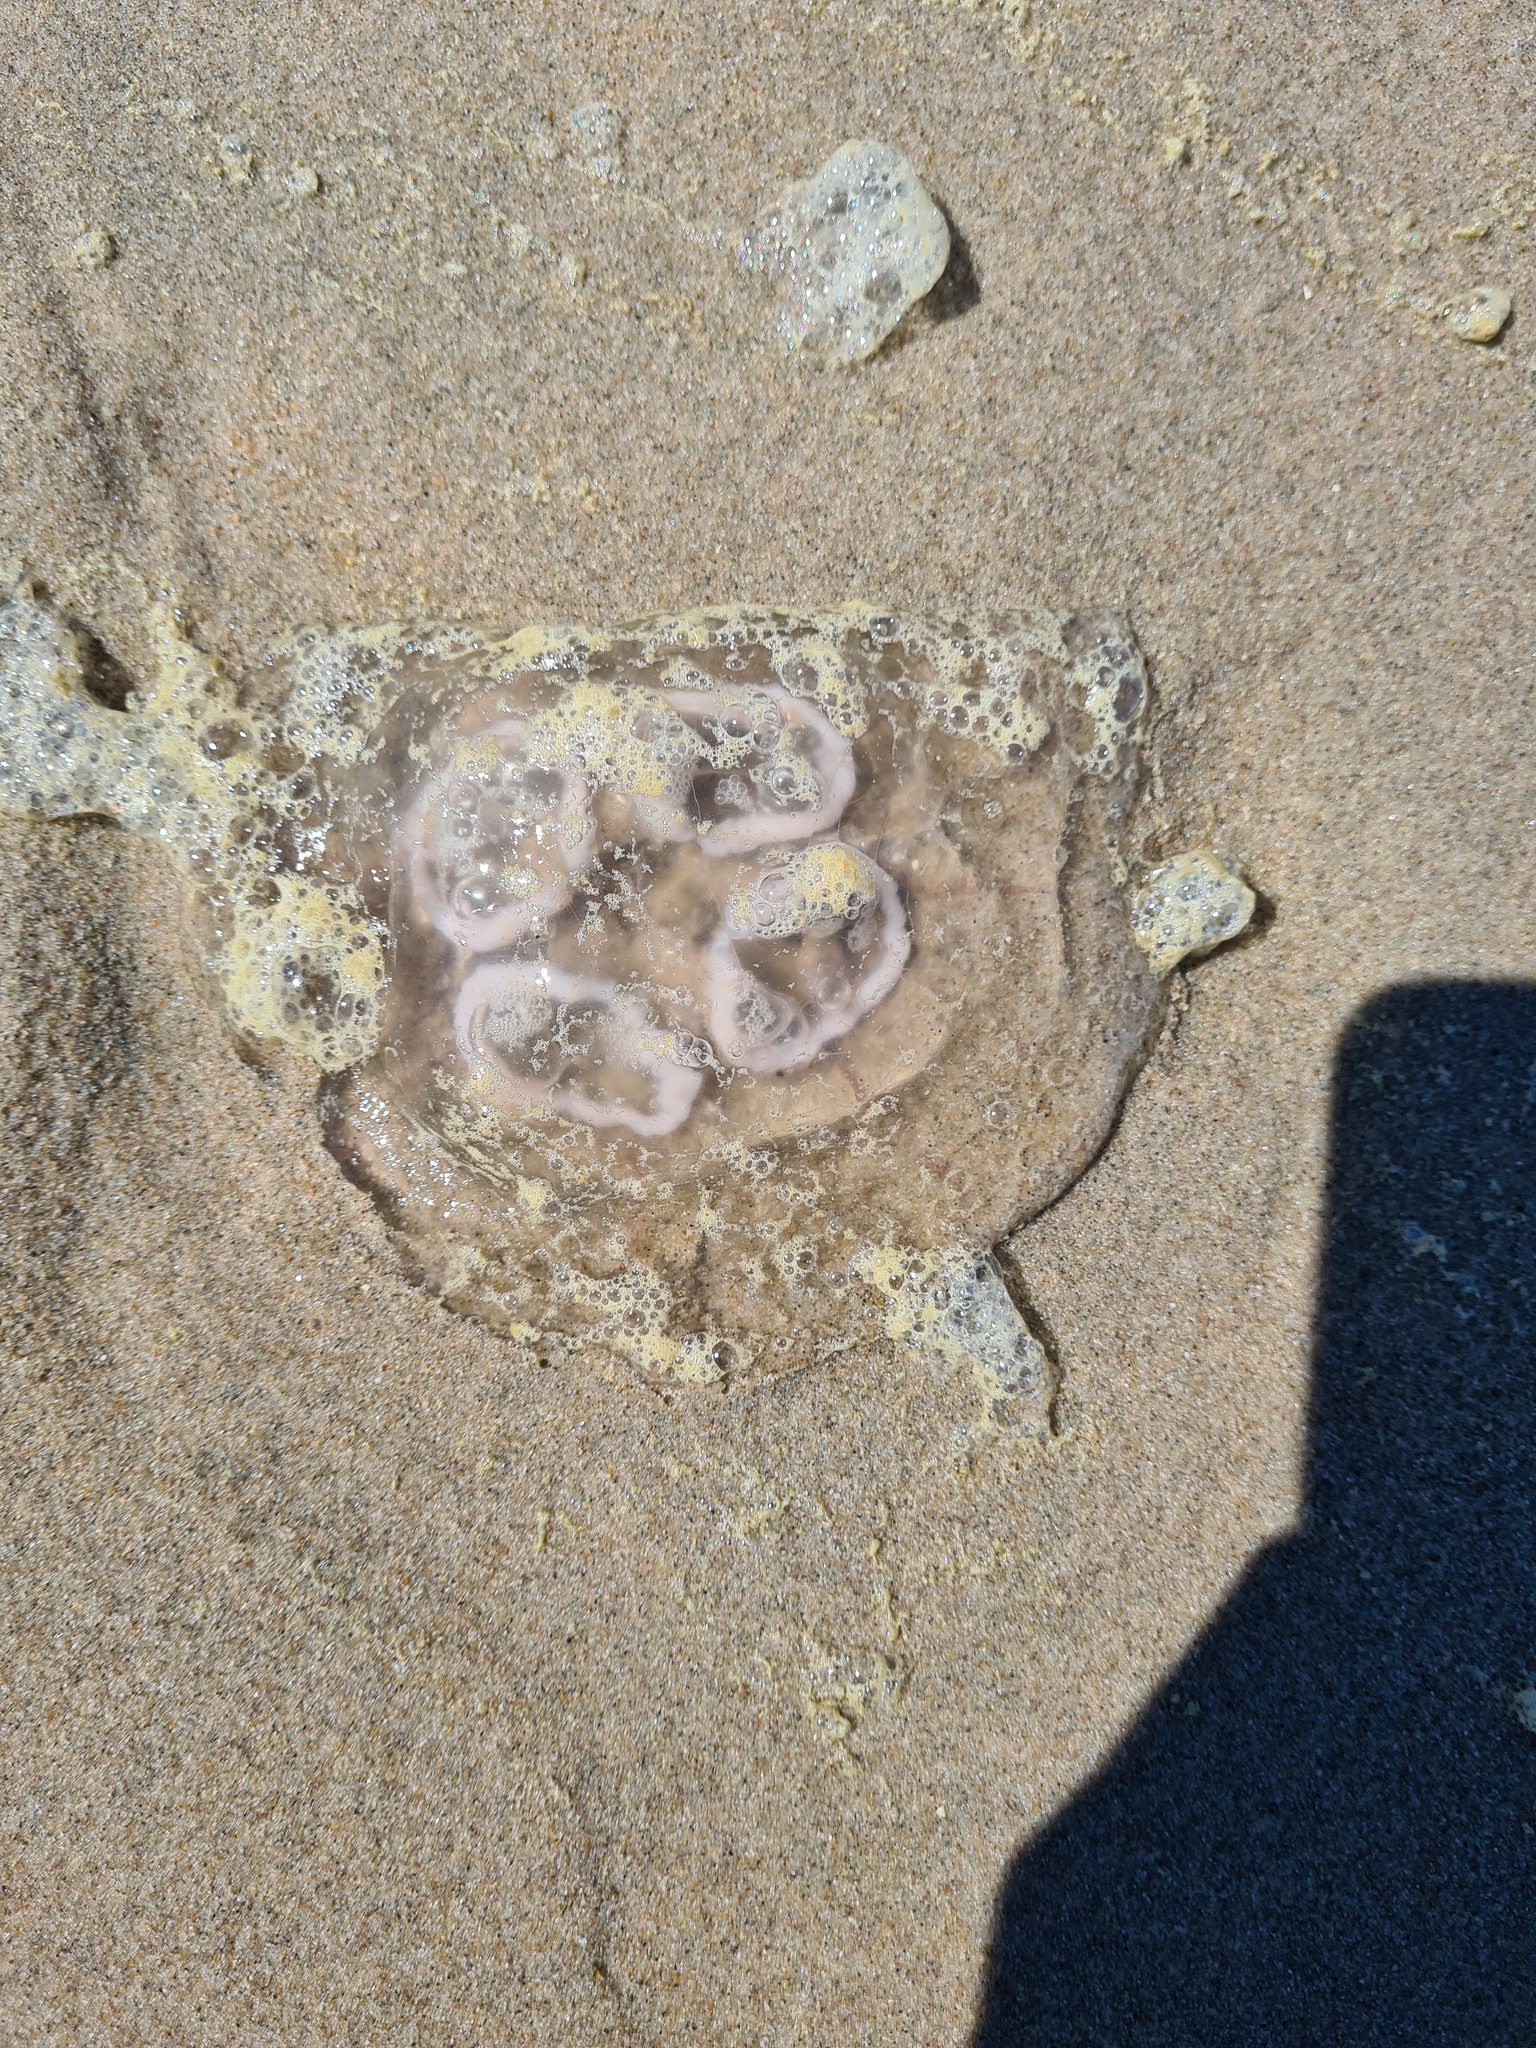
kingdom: Animalia
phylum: Cnidaria
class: Scyphozoa
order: Semaeostomeae
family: Ulmaridae
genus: Aurelia
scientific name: Aurelia aurita
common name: Moon jellyfish
